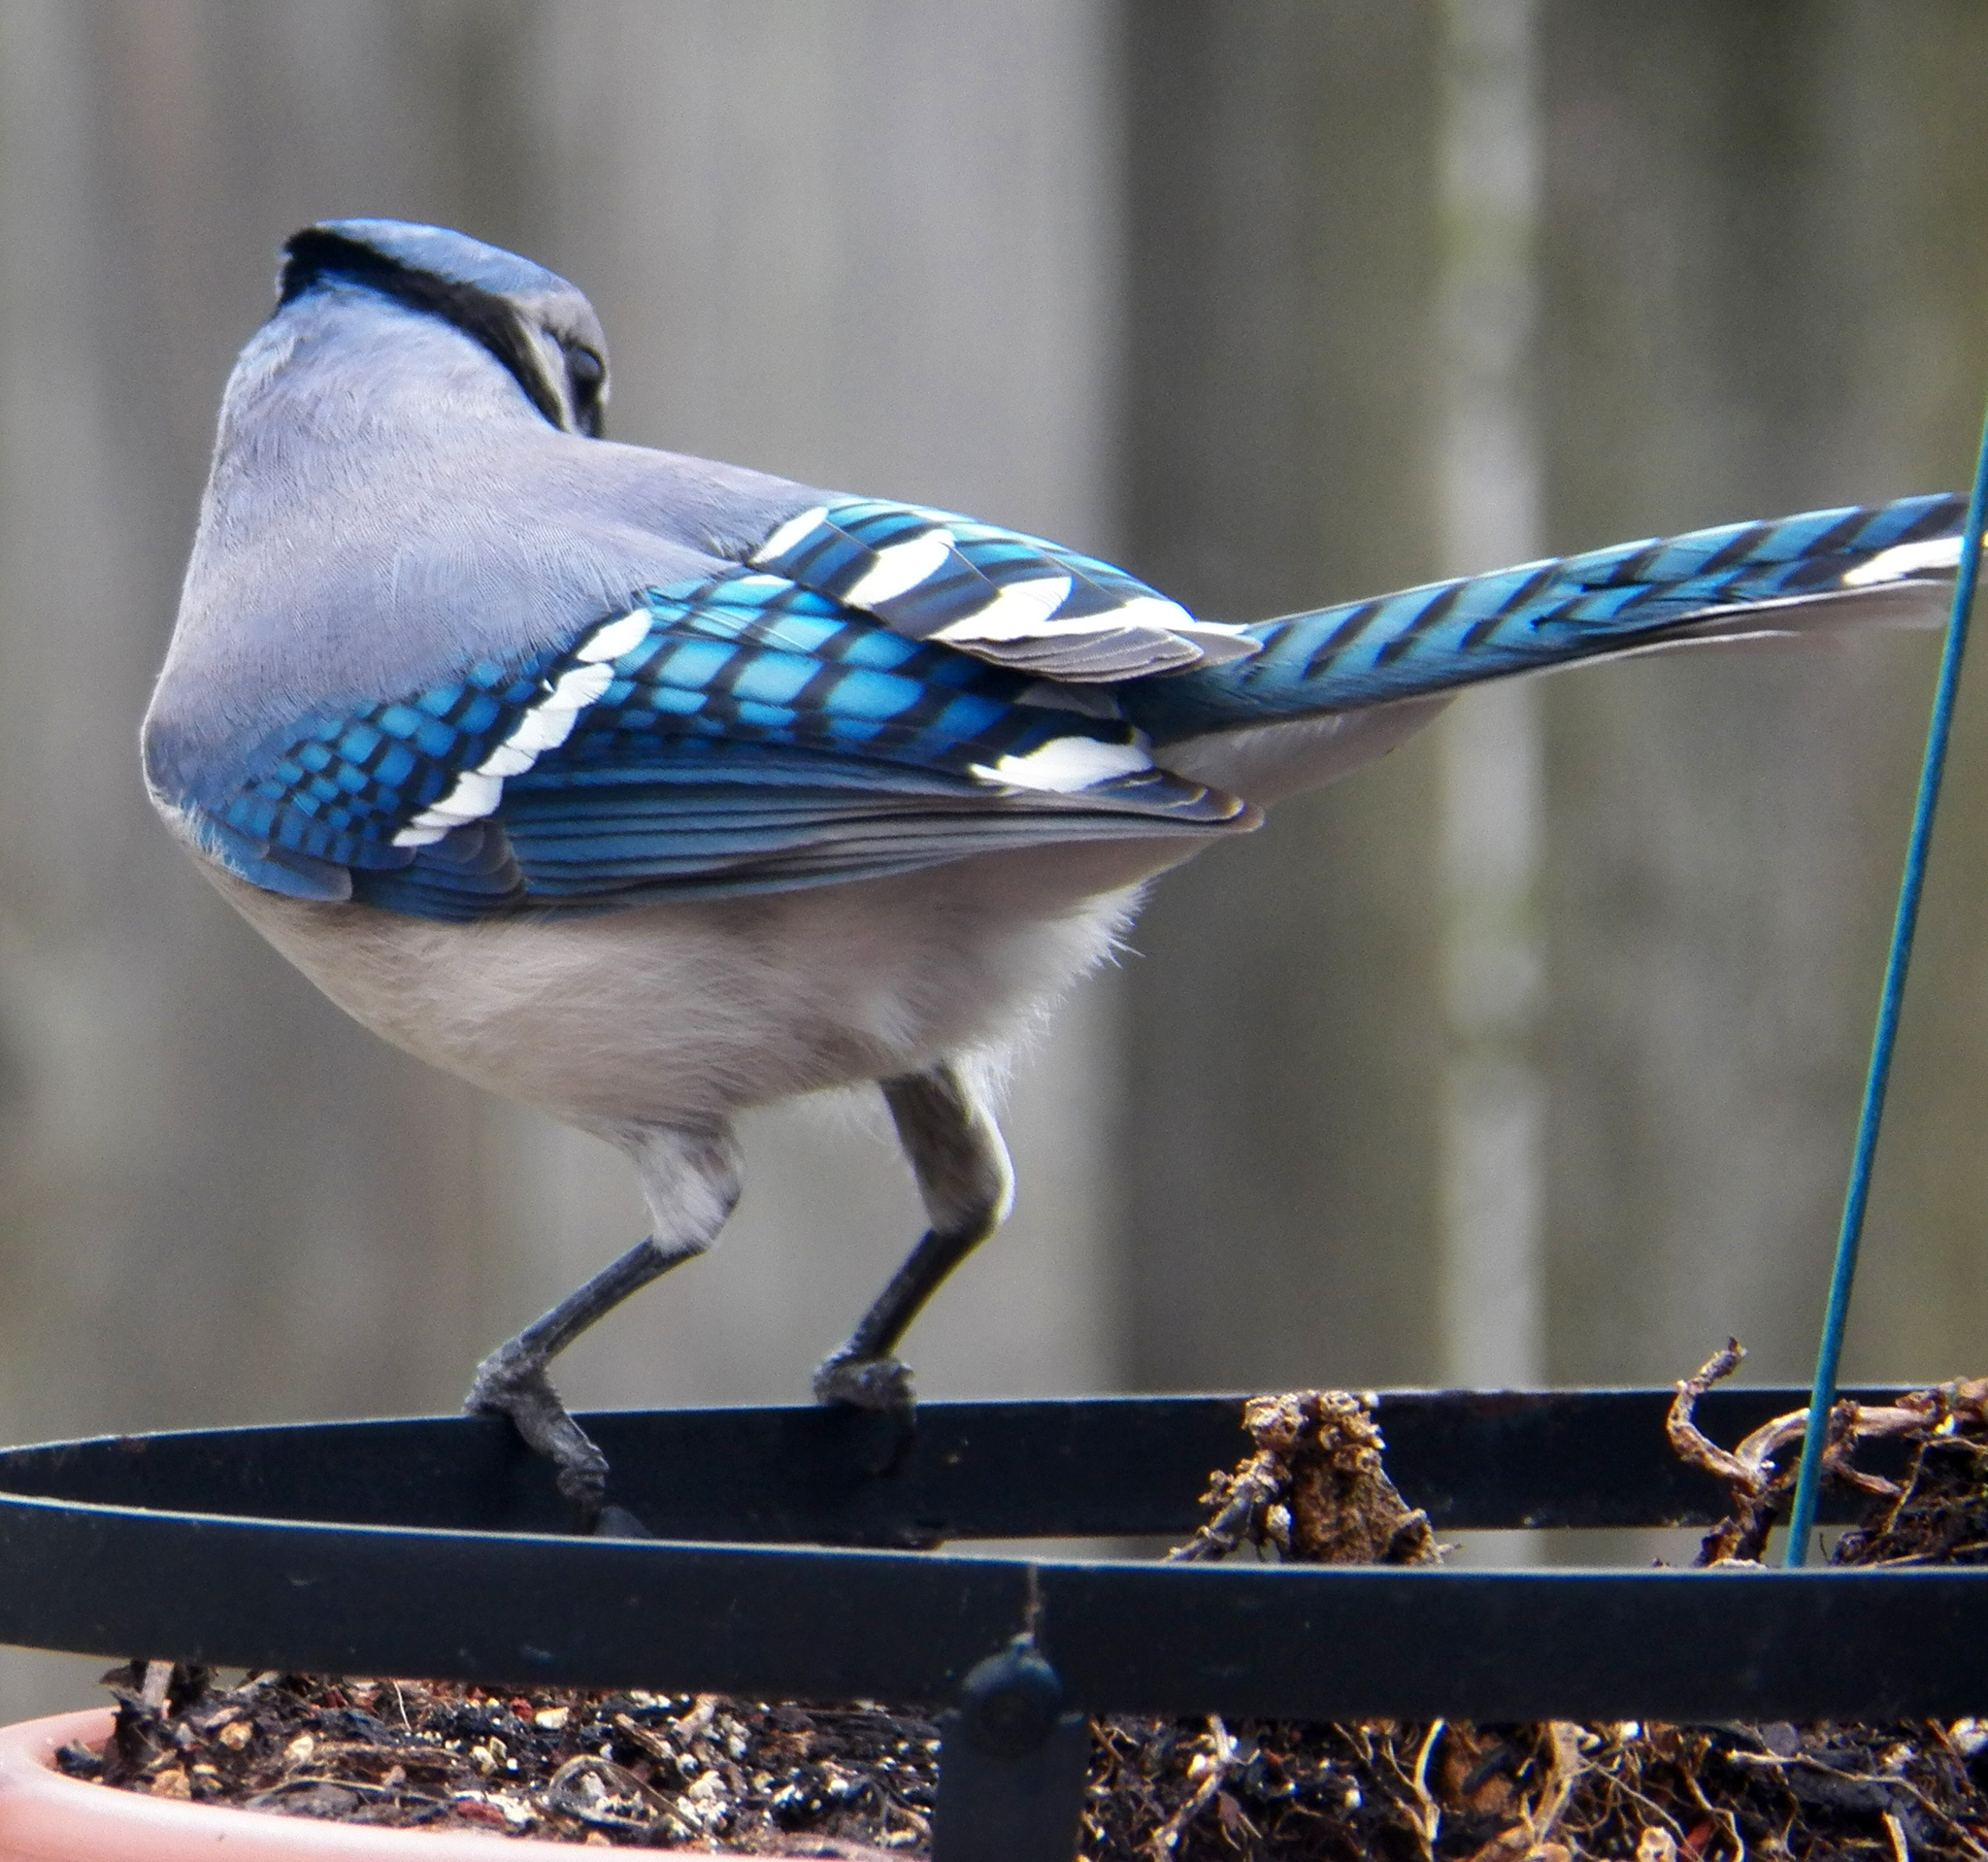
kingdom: Animalia
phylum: Chordata
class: Aves
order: Passeriformes
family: Corvidae
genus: Cyanocitta
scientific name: Cyanocitta cristata
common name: Blue jay
